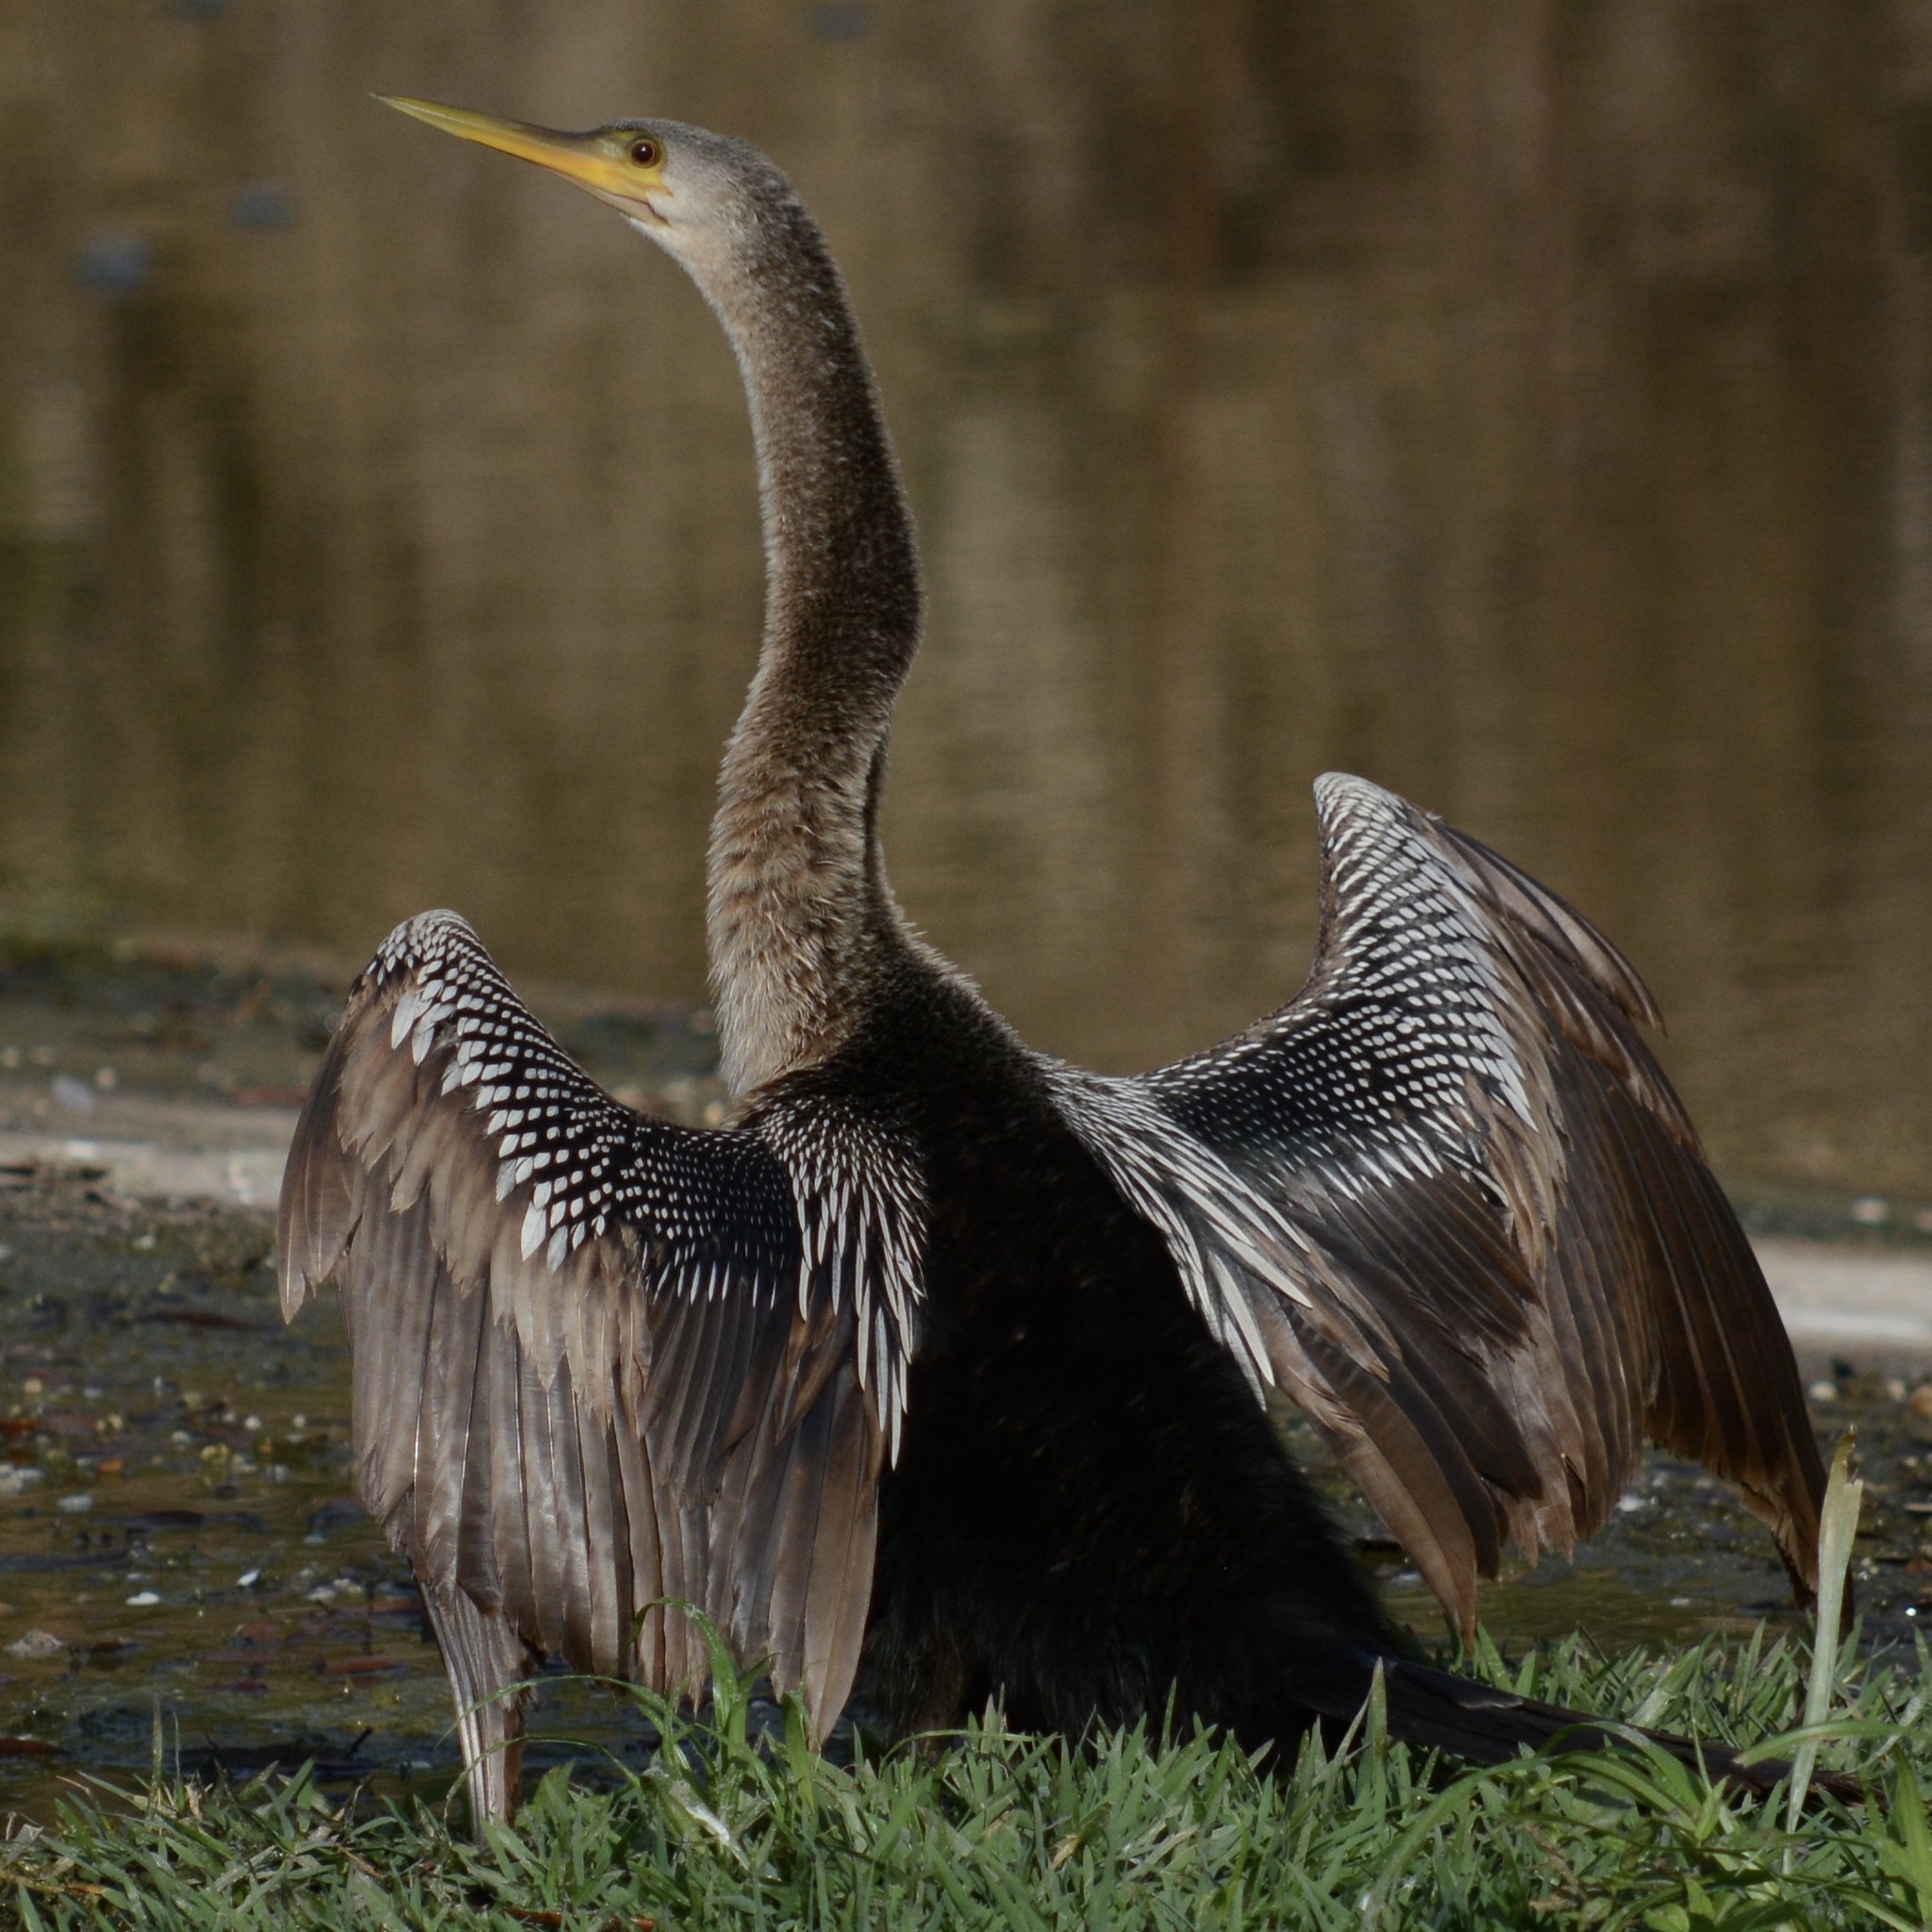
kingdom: Animalia
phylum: Chordata
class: Aves
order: Suliformes
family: Anhingidae
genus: Anhinga
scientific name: Anhinga anhinga
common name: Anhinga
